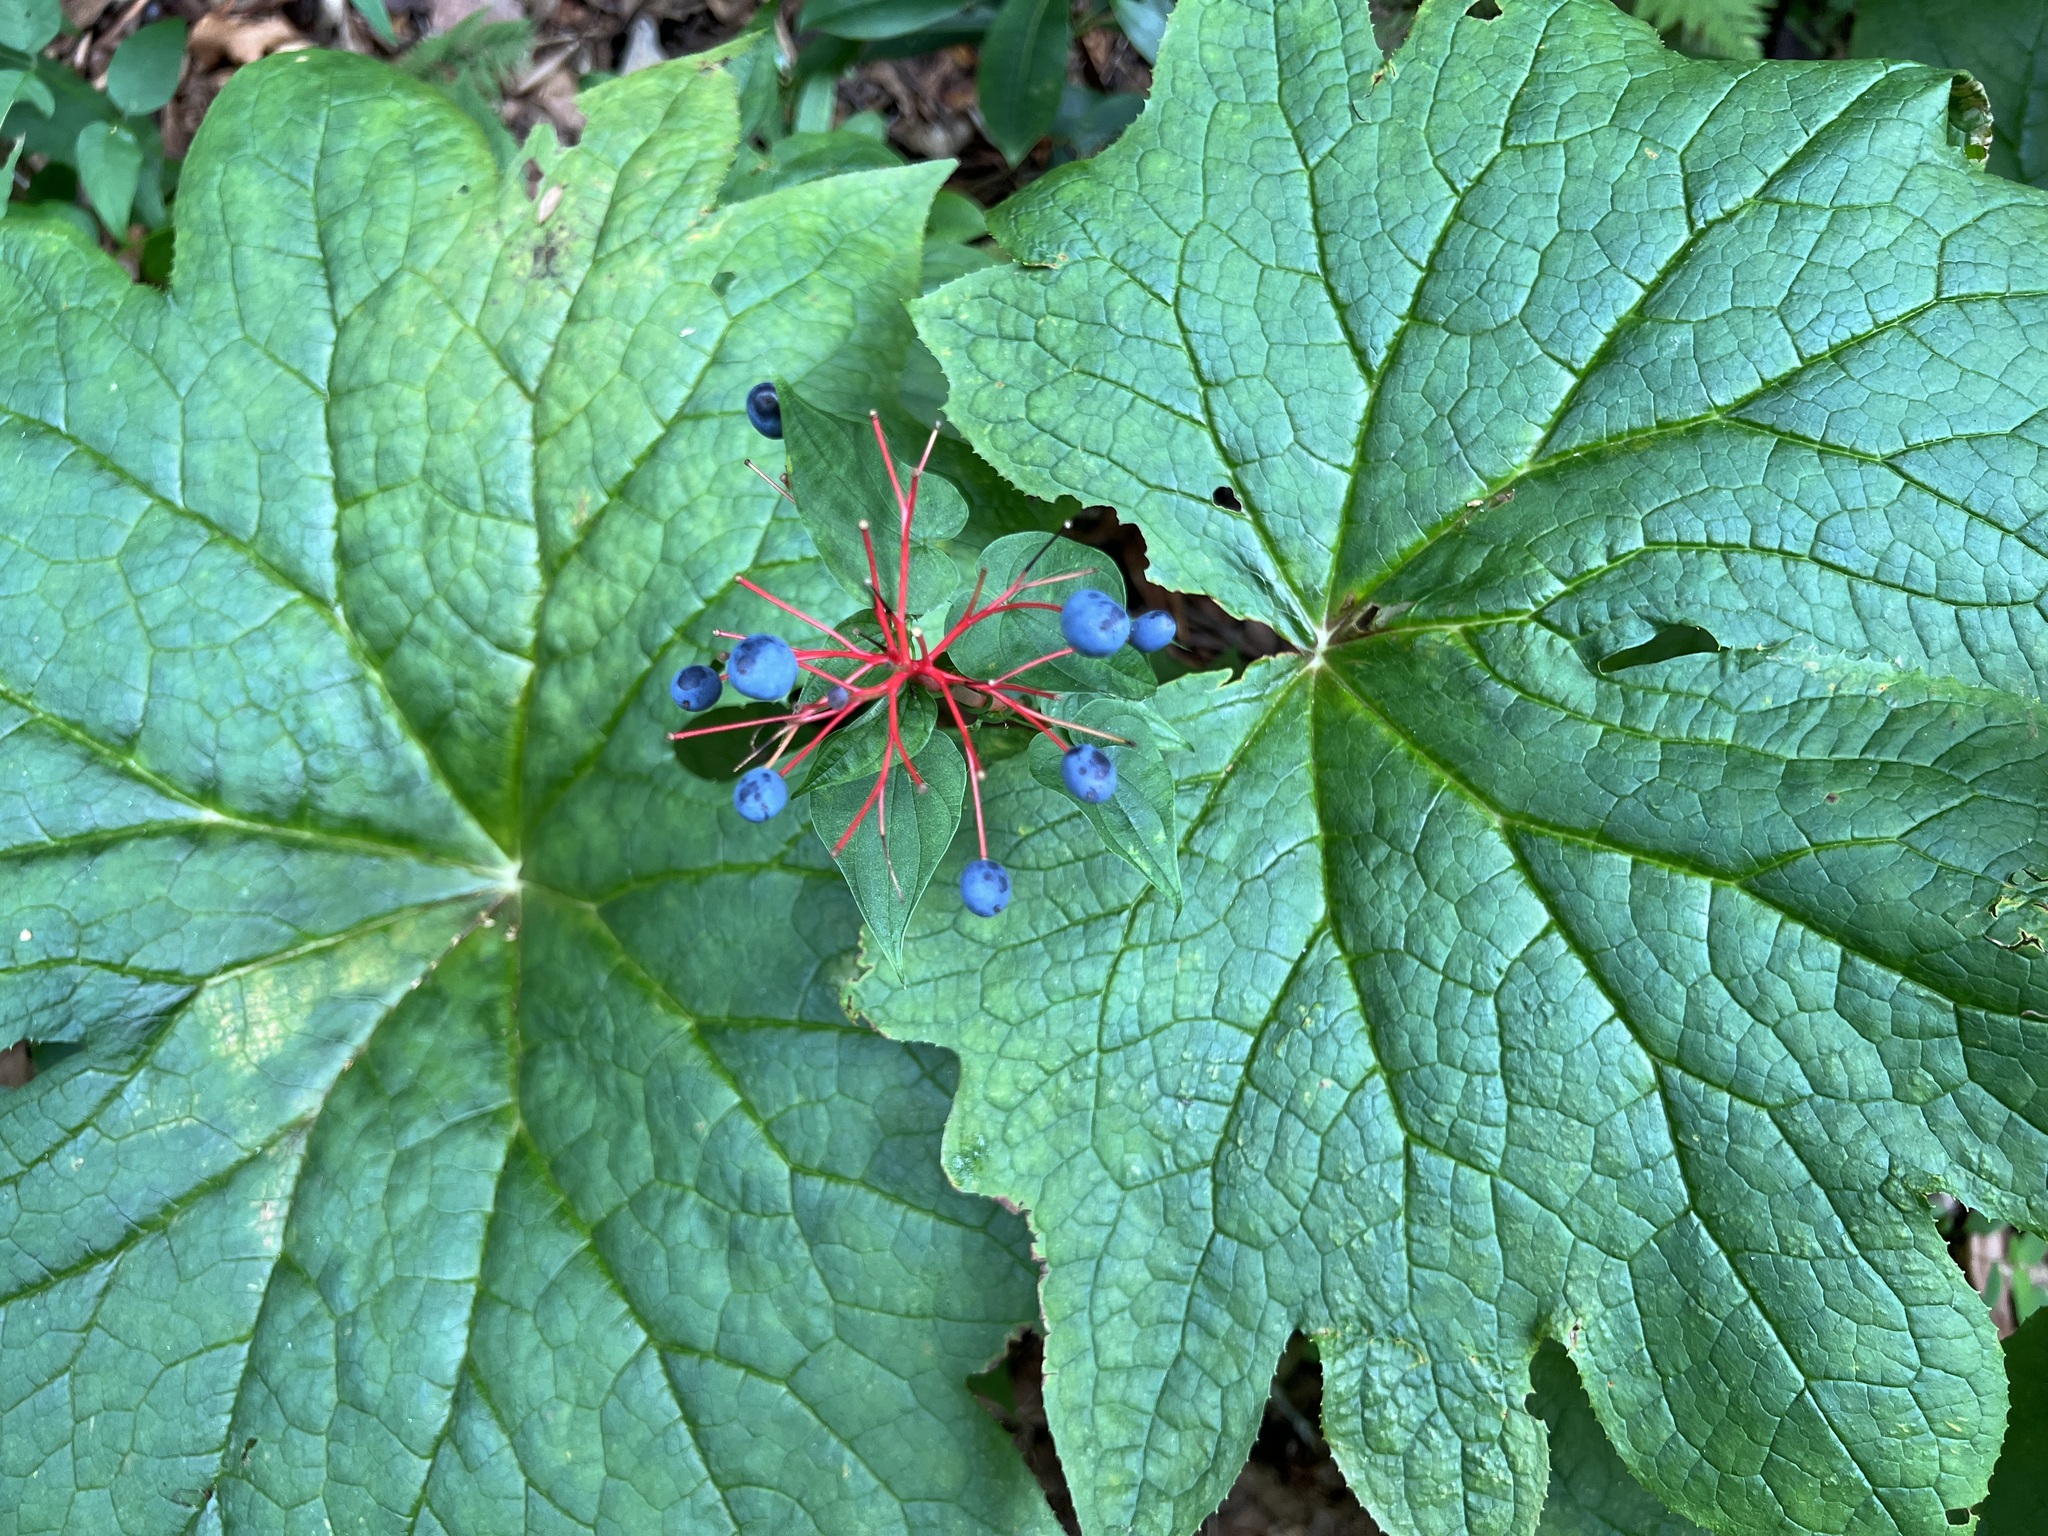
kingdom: Plantae
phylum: Tracheophyta
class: Magnoliopsida
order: Ranunculales
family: Berberidaceae
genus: Diphylleia
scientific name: Diphylleia cymosa
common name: Umbrella-leaf
